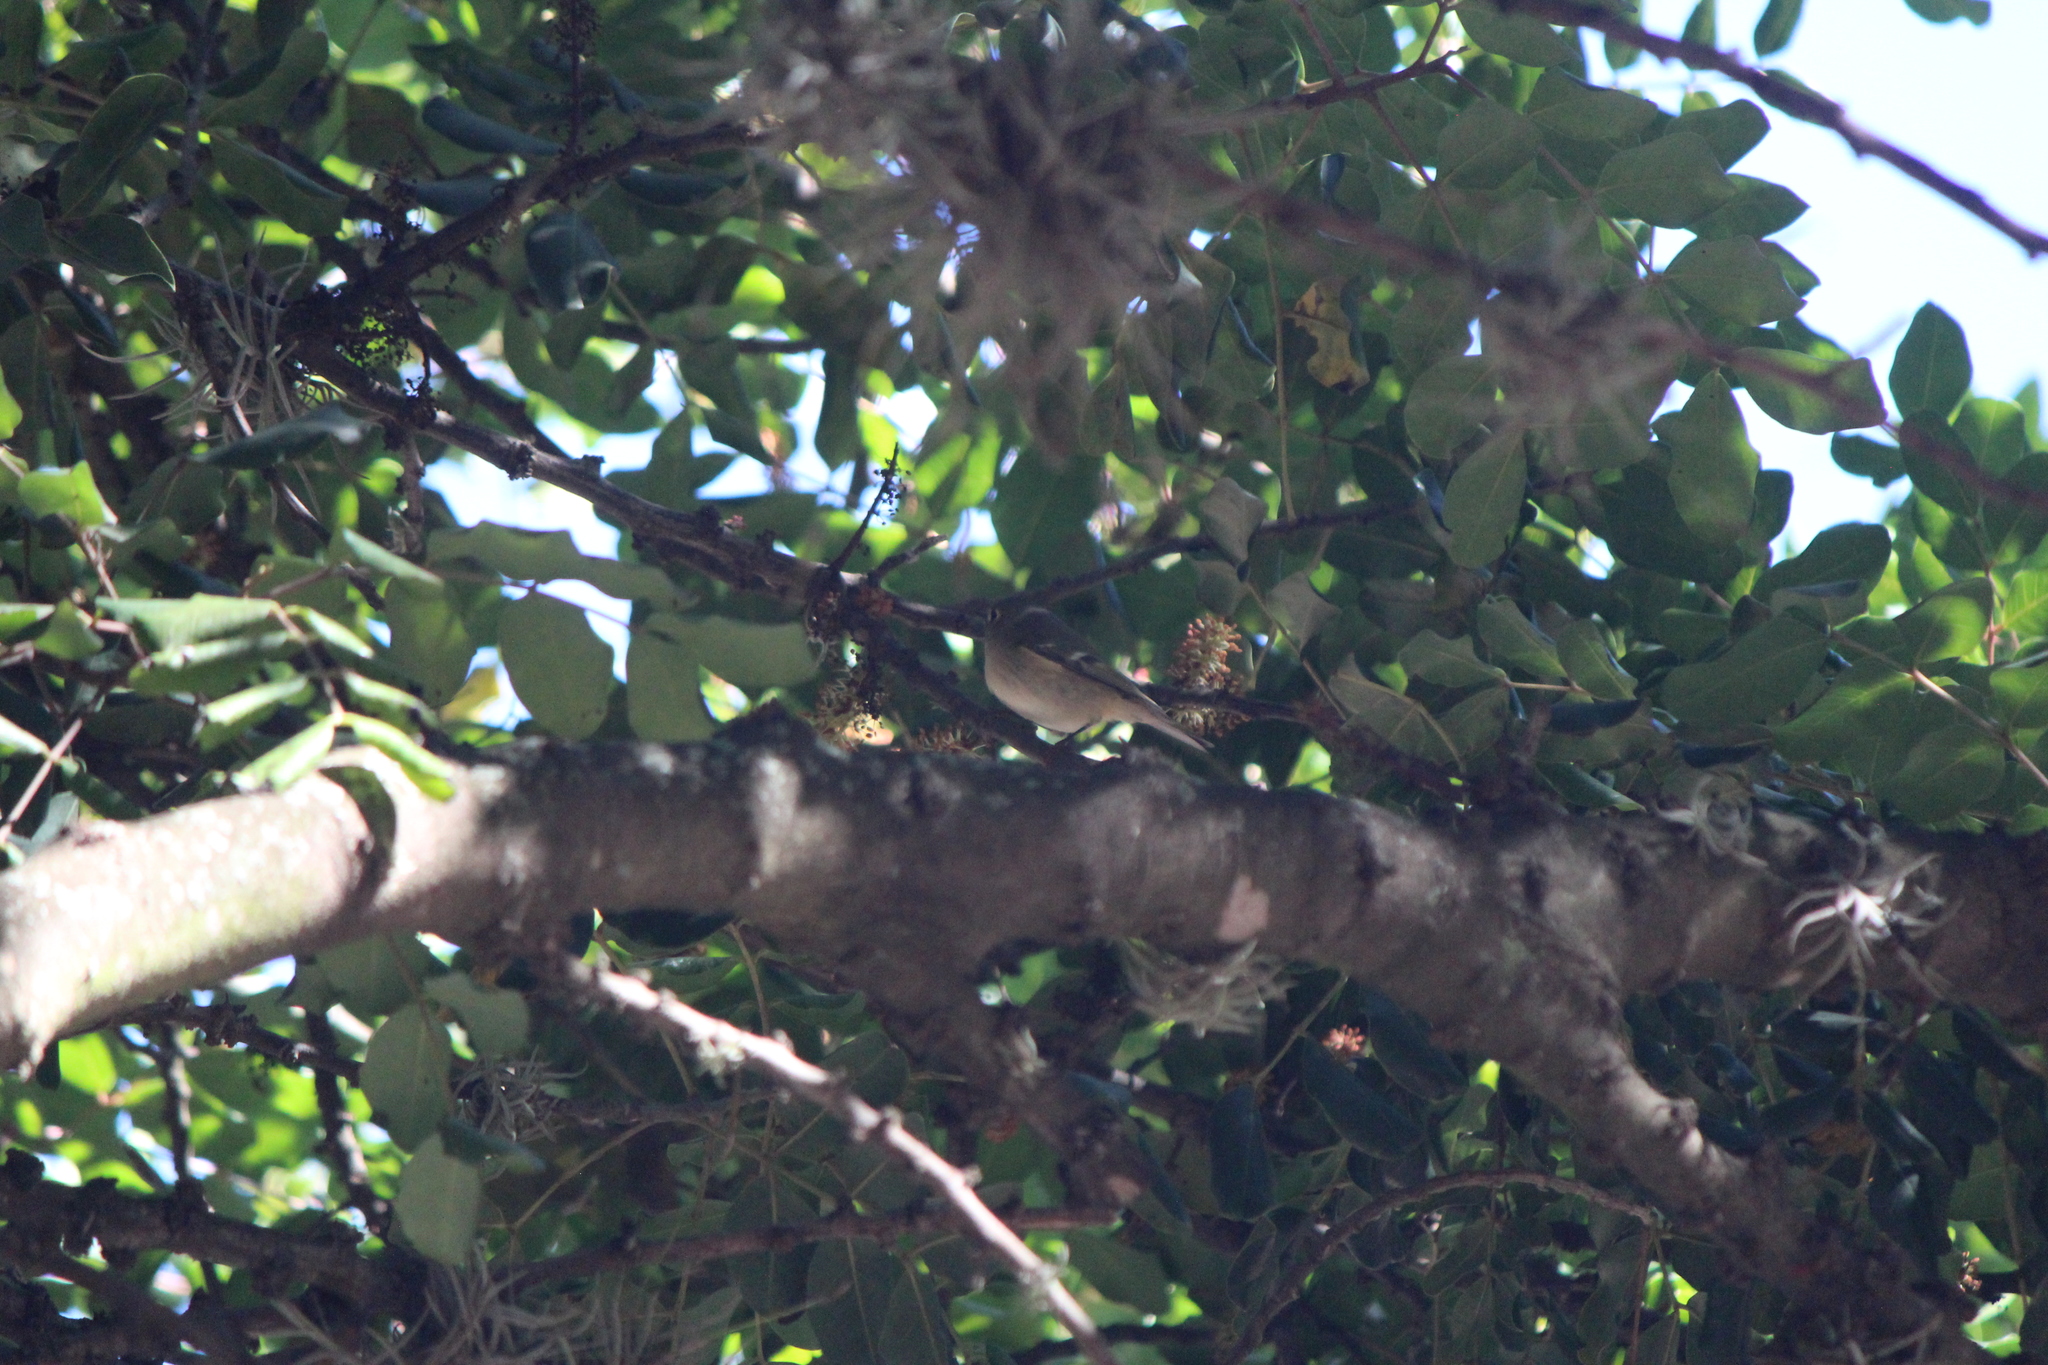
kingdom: Animalia
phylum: Chordata
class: Aves
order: Passeriformes
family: Regulidae
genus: Regulus
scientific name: Regulus calendula
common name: Ruby-crowned kinglet
